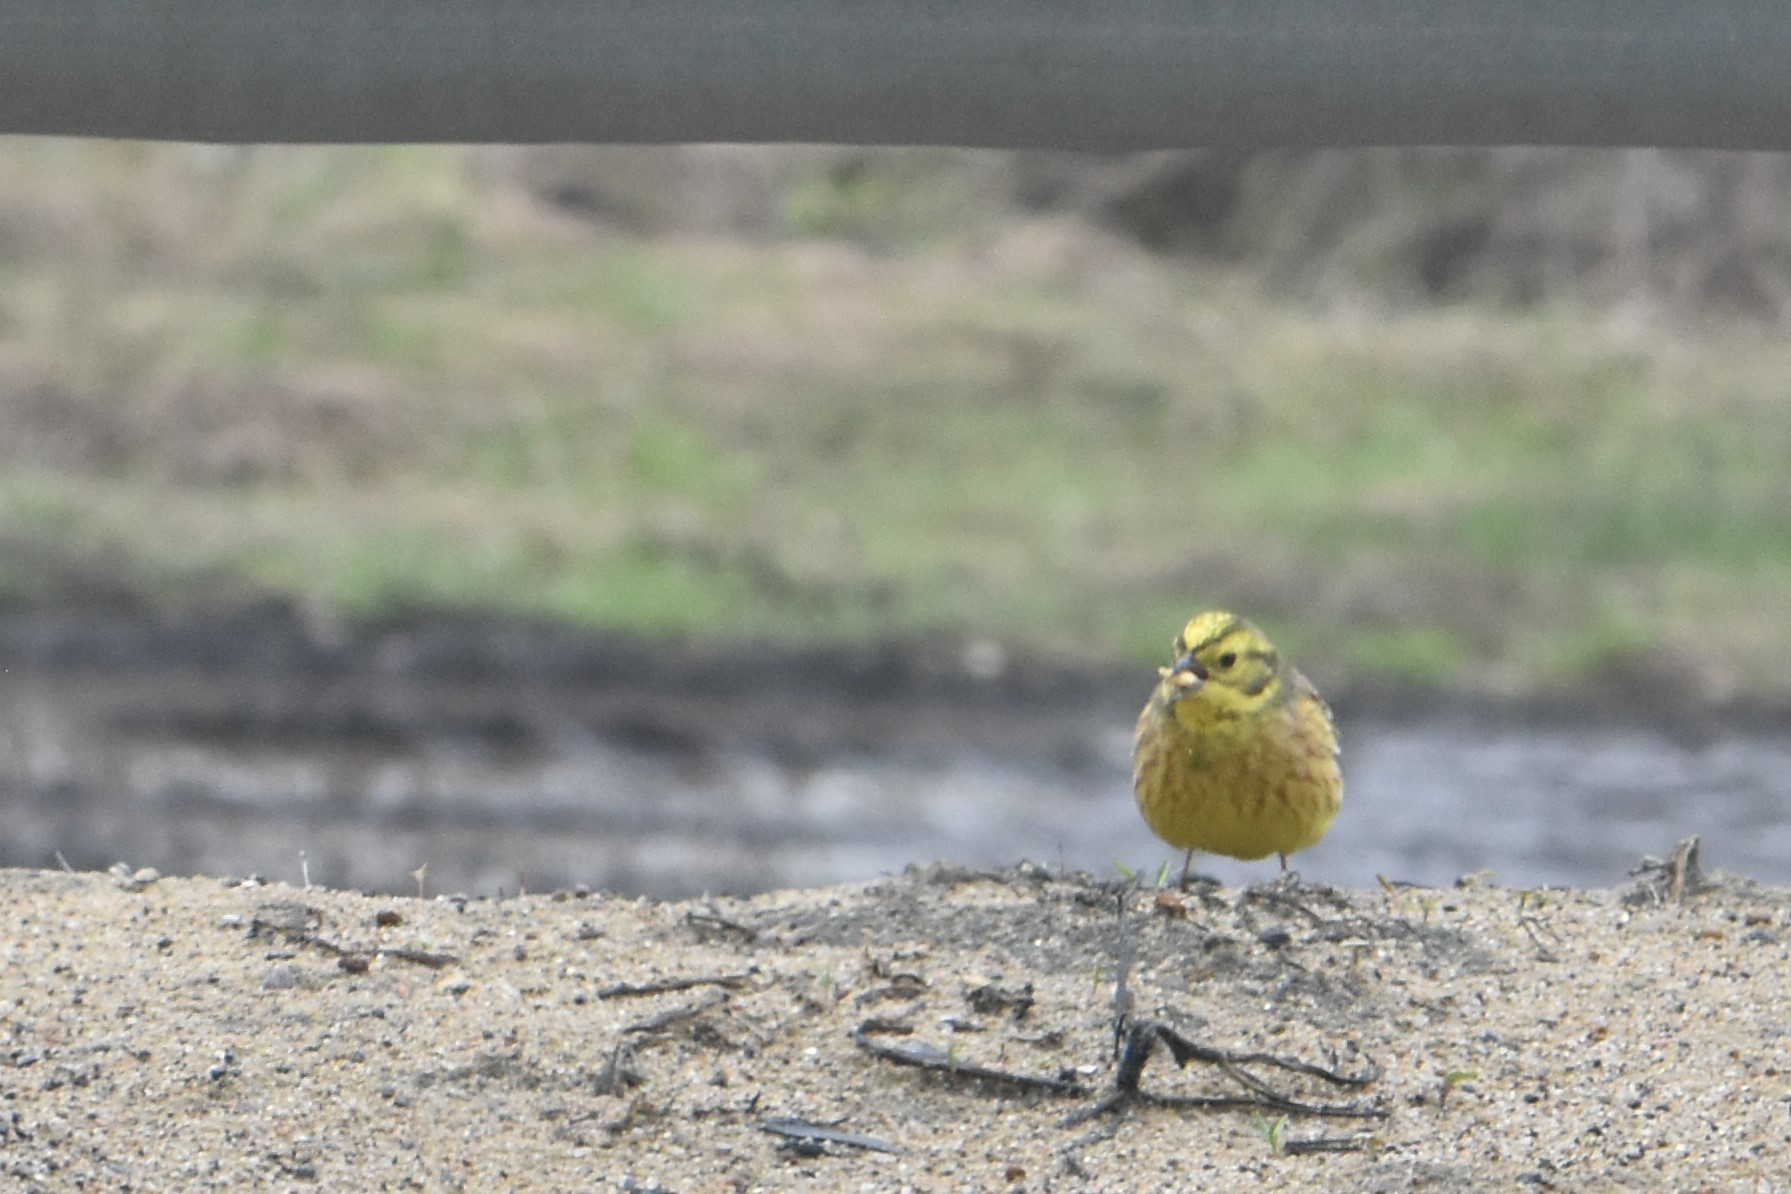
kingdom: Animalia
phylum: Chordata
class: Aves
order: Passeriformes
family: Emberizidae
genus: Emberiza
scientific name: Emberiza citrinella
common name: Yellowhammer
